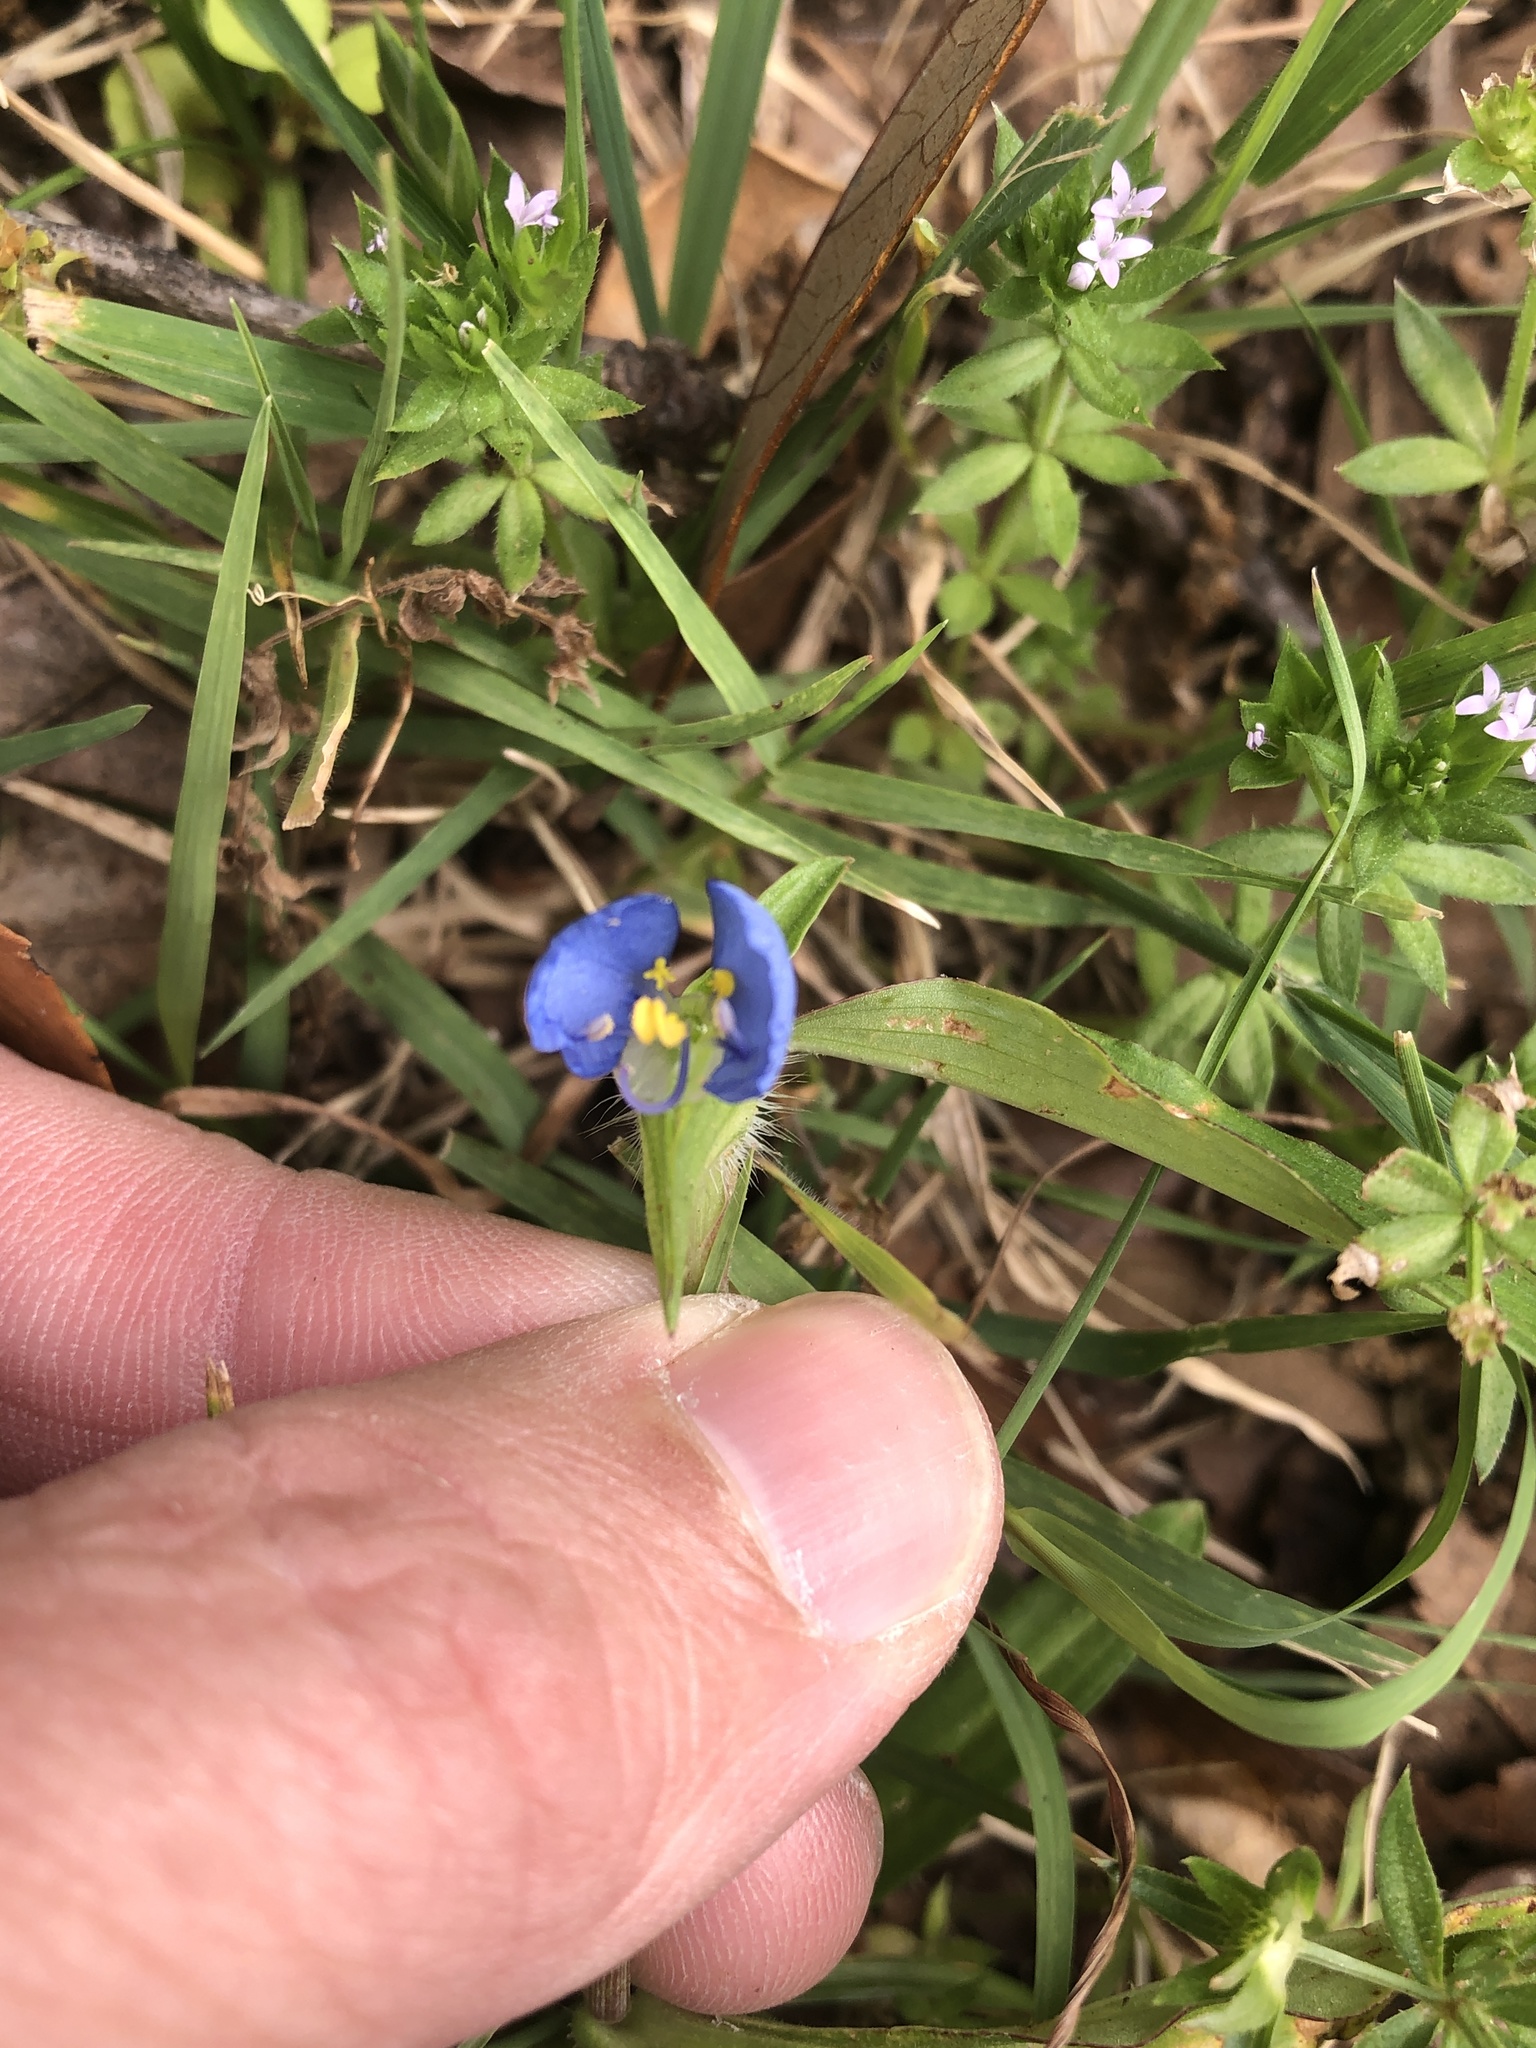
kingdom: Plantae
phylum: Tracheophyta
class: Liliopsida
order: Commelinales
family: Commelinaceae
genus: Commelina
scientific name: Commelina erecta
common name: Blousel blommetjie
